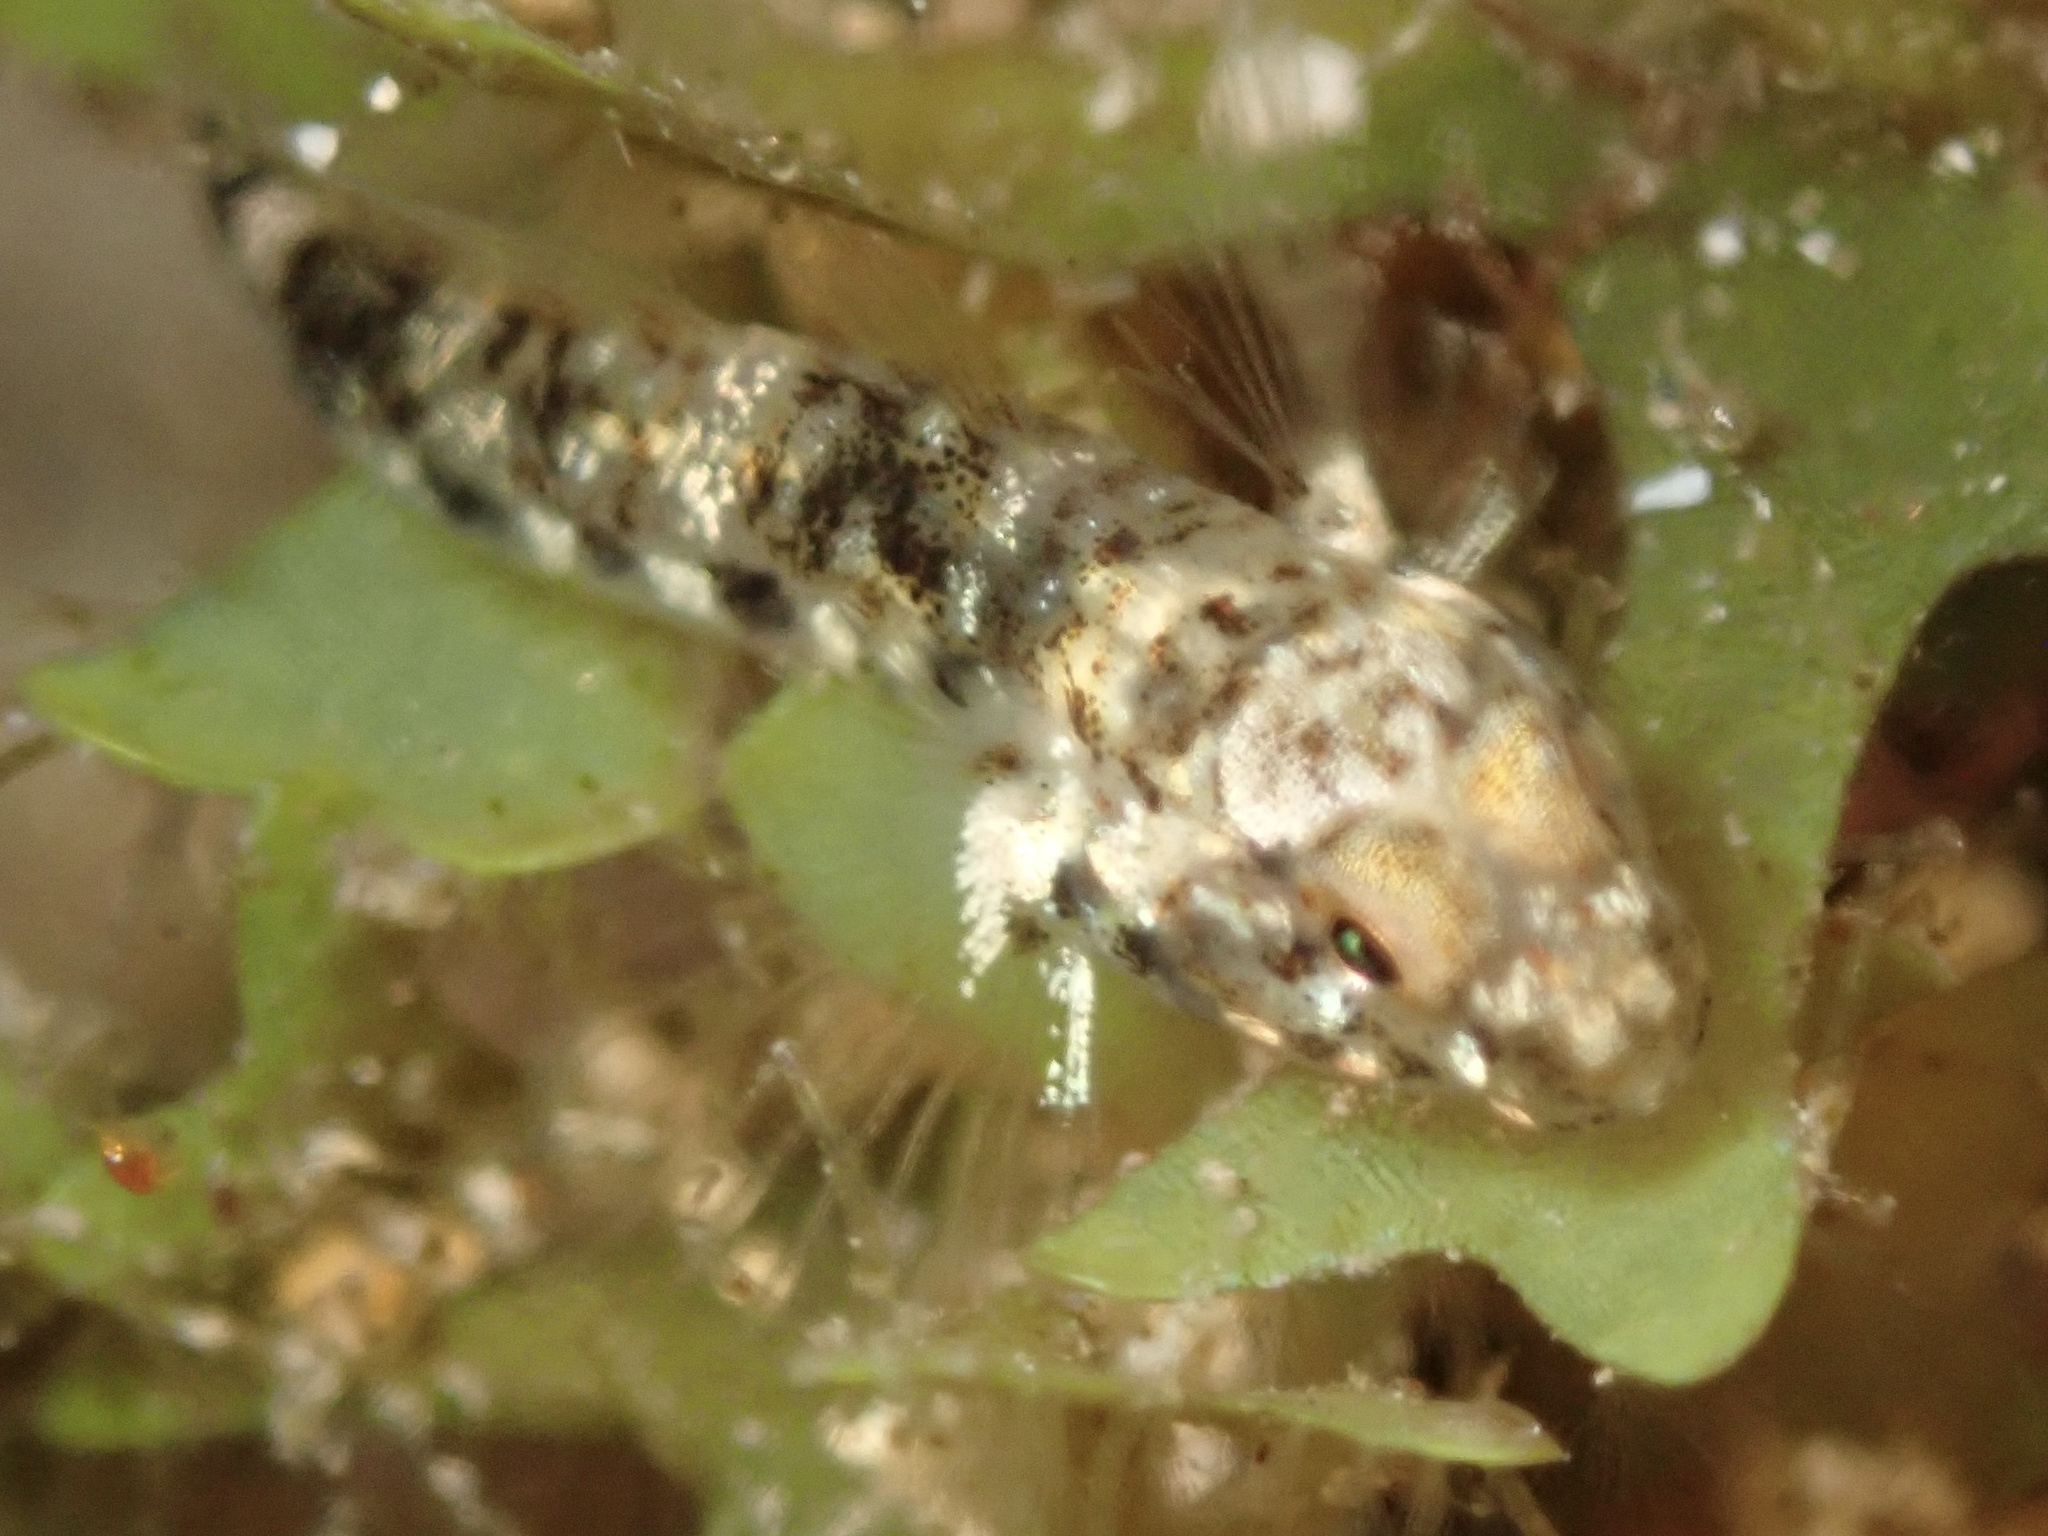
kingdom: Animalia
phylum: Chordata
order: Perciformes
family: Gobiidae
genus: Bathygobius
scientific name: Bathygobius
